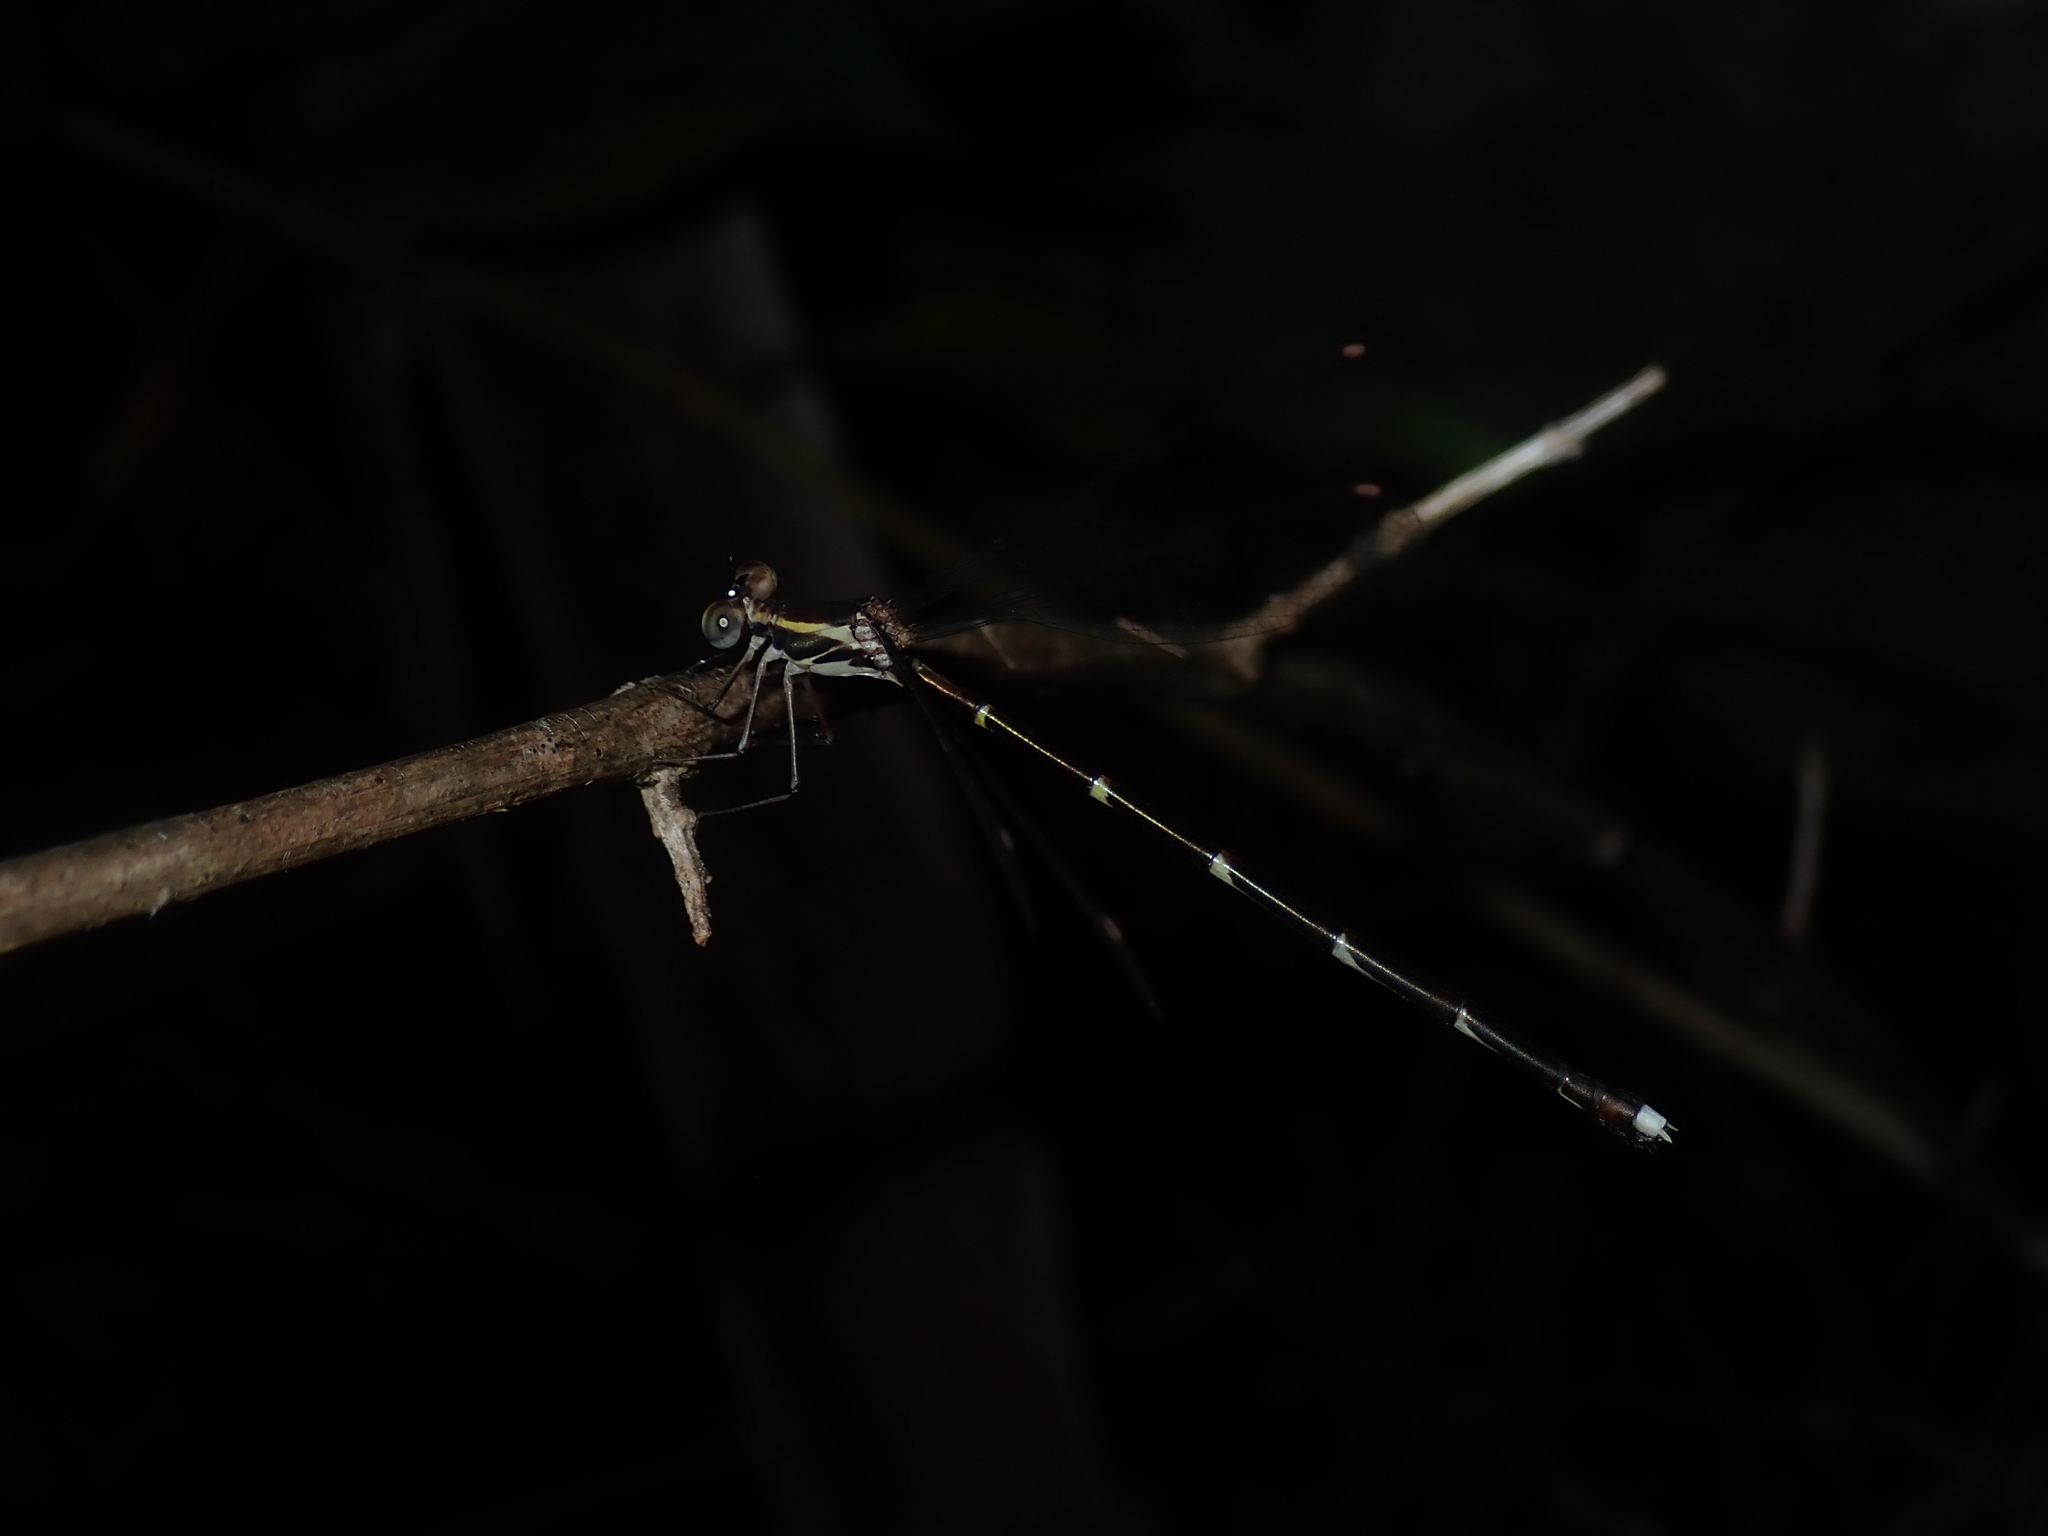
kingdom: Animalia
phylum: Arthropoda
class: Insecta
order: Odonata
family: Synlestidae
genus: Episynlestes
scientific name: Episynlestes albicaudus
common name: Southern whitetip
